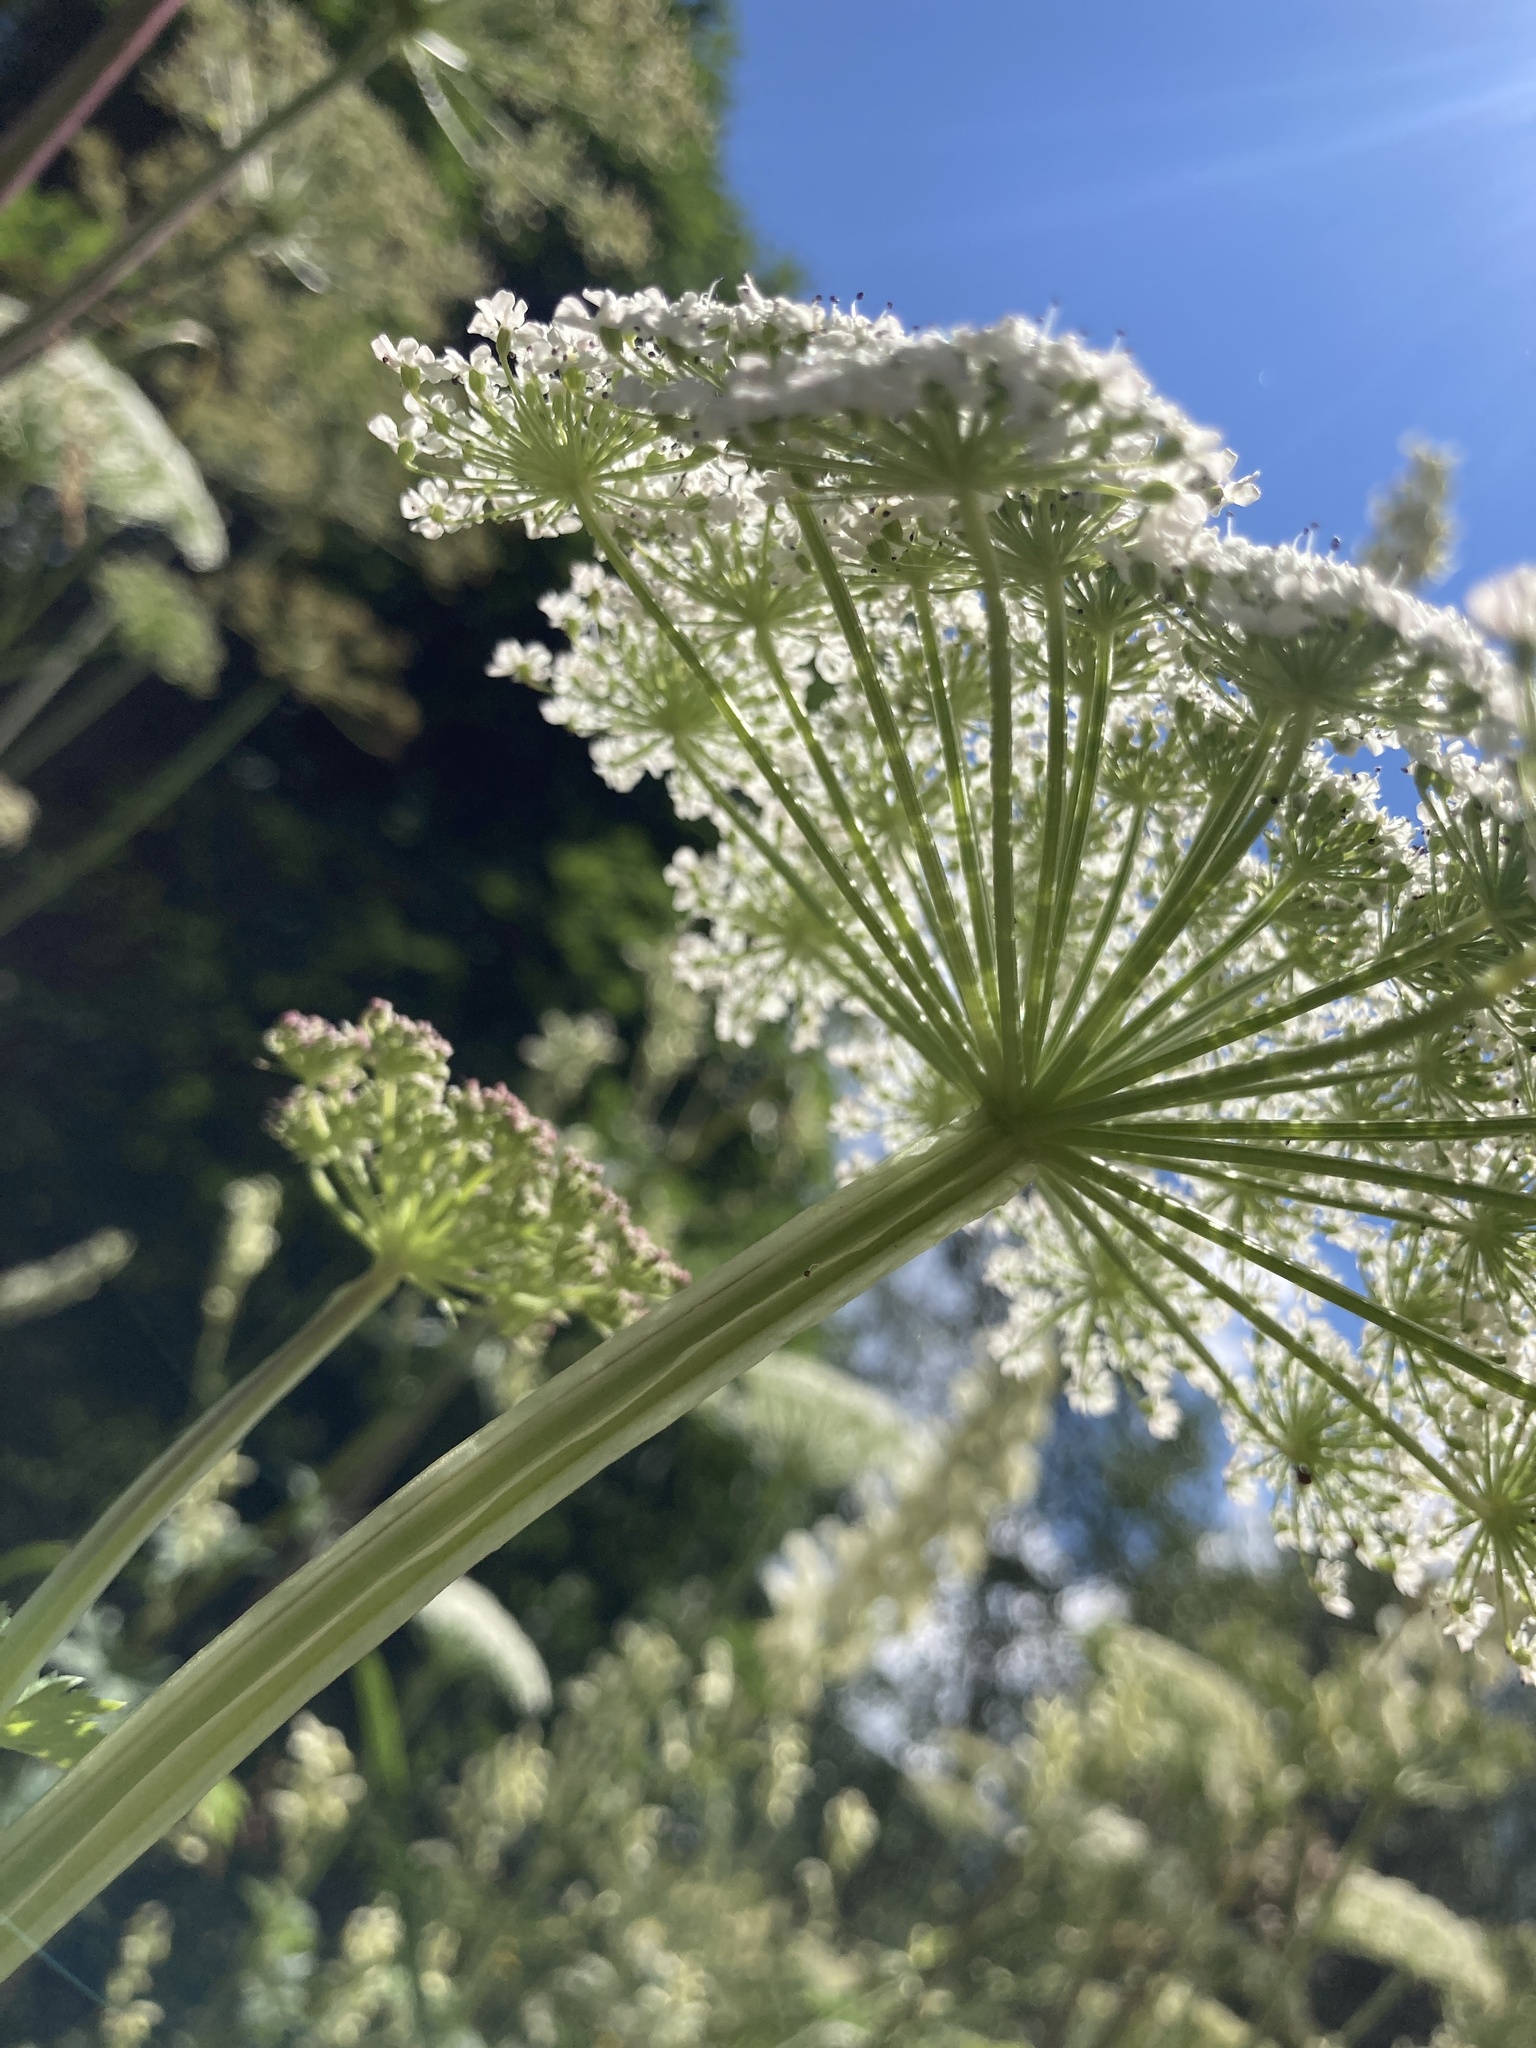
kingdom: Plantae
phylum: Tracheophyta
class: Magnoliopsida
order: Apiales
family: Apiaceae
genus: Selinum
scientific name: Selinum alatum
